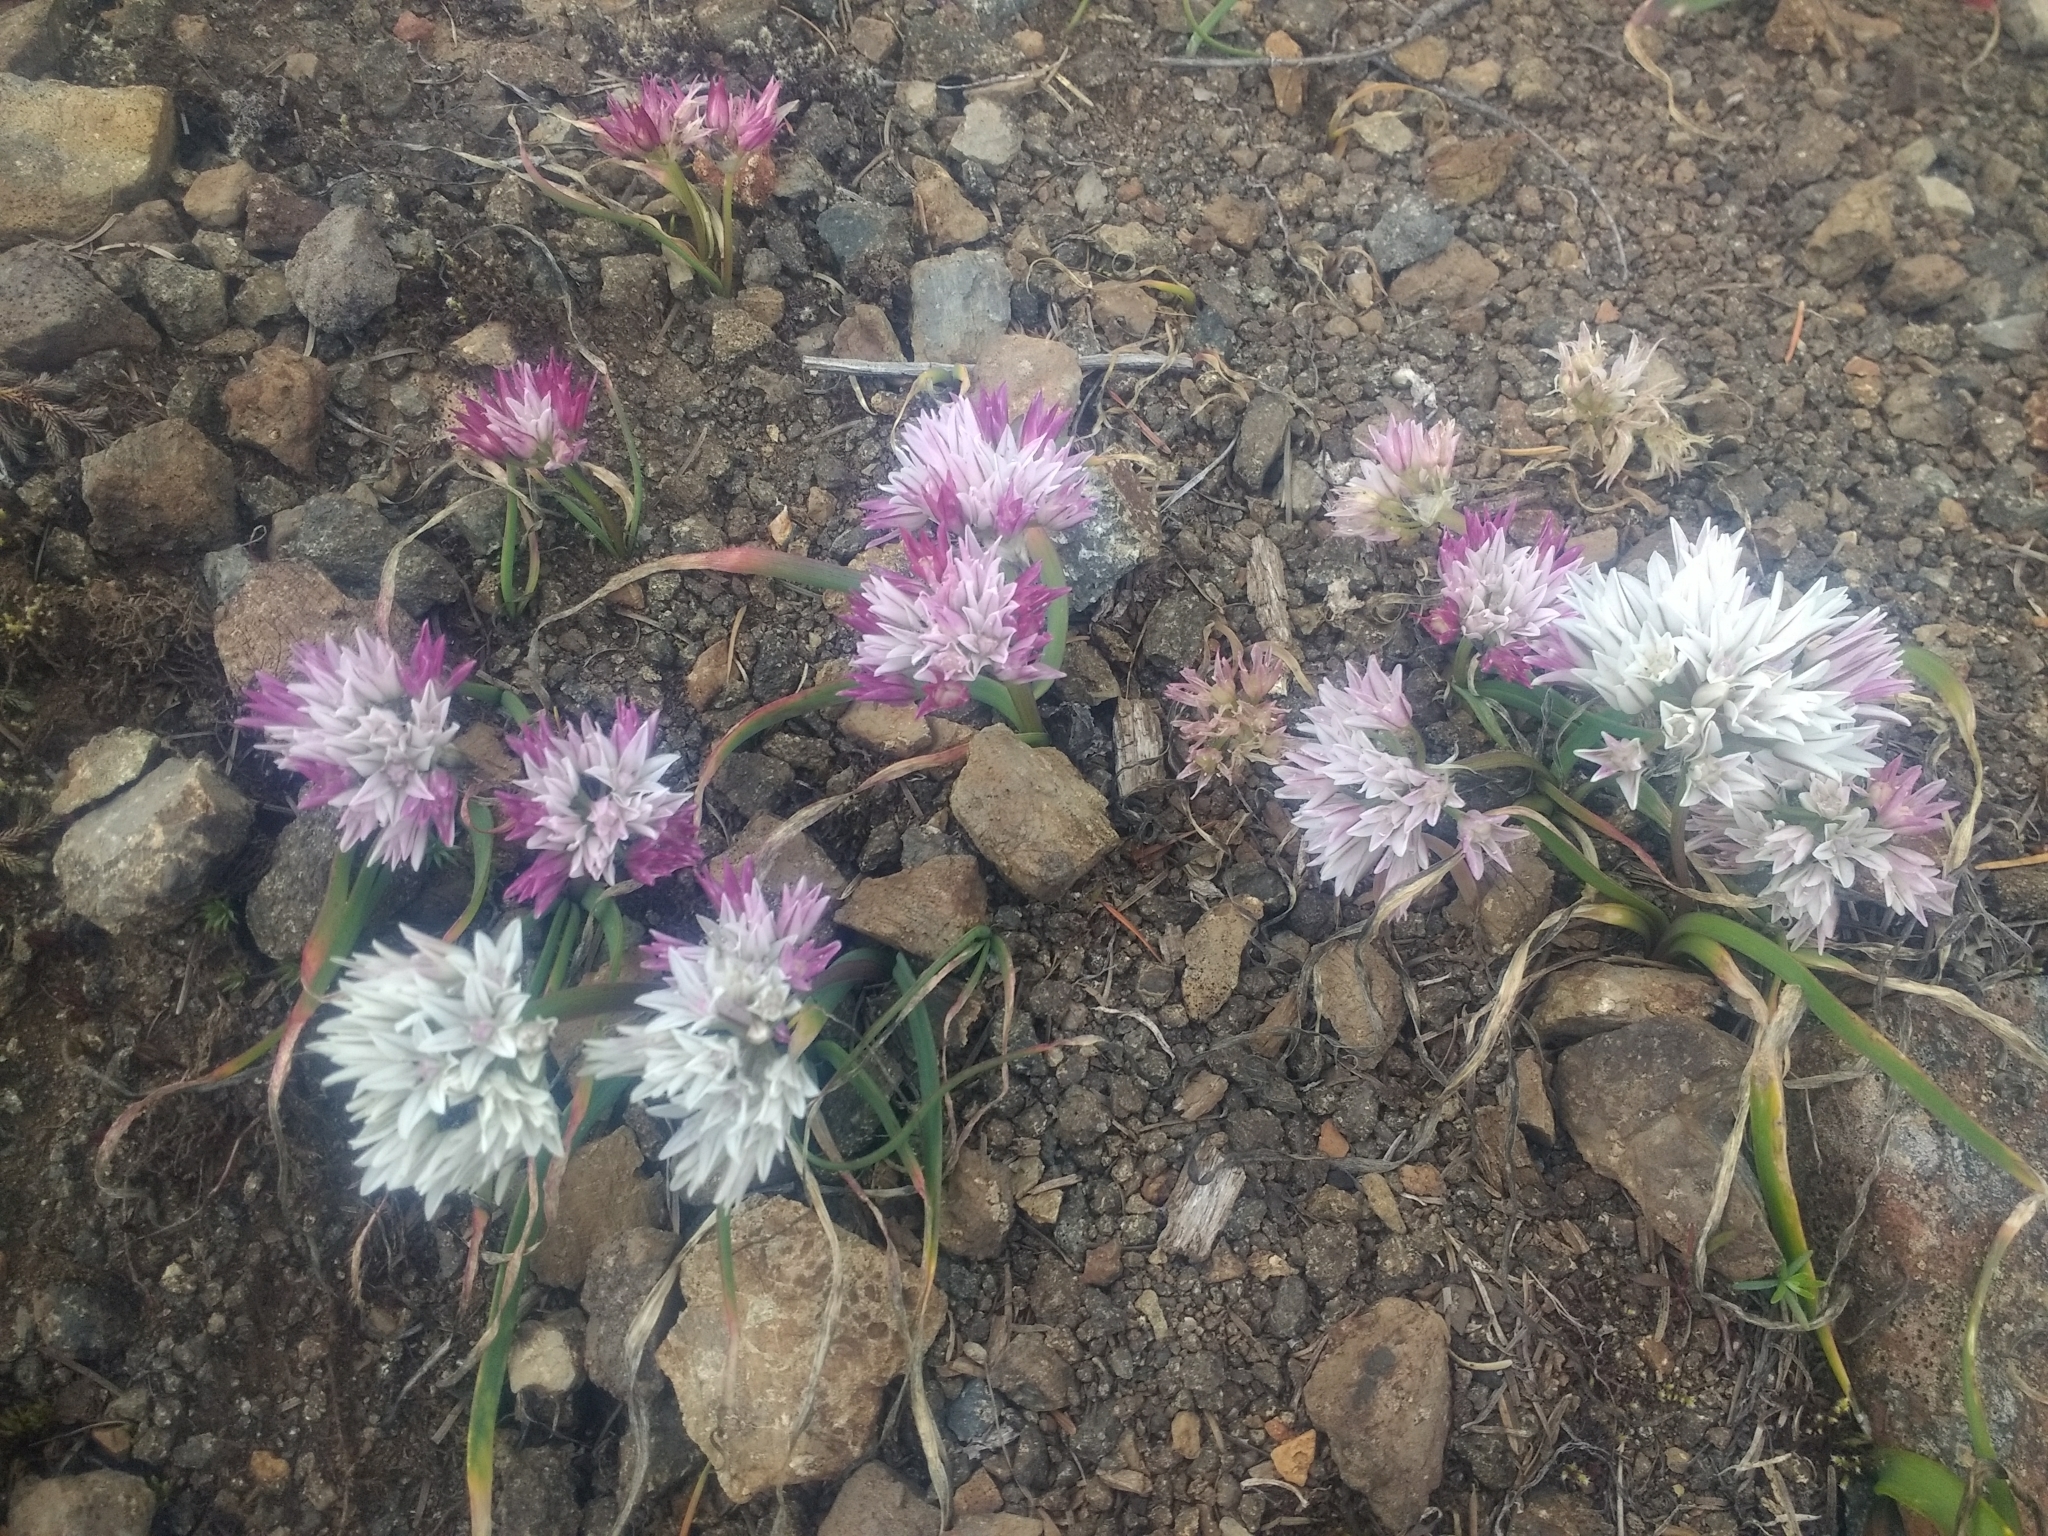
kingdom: Plantae
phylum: Tracheophyta
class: Liliopsida
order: Asparagales
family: Amaryllidaceae
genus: Allium
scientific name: Allium crenulatum
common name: Olympic onion
